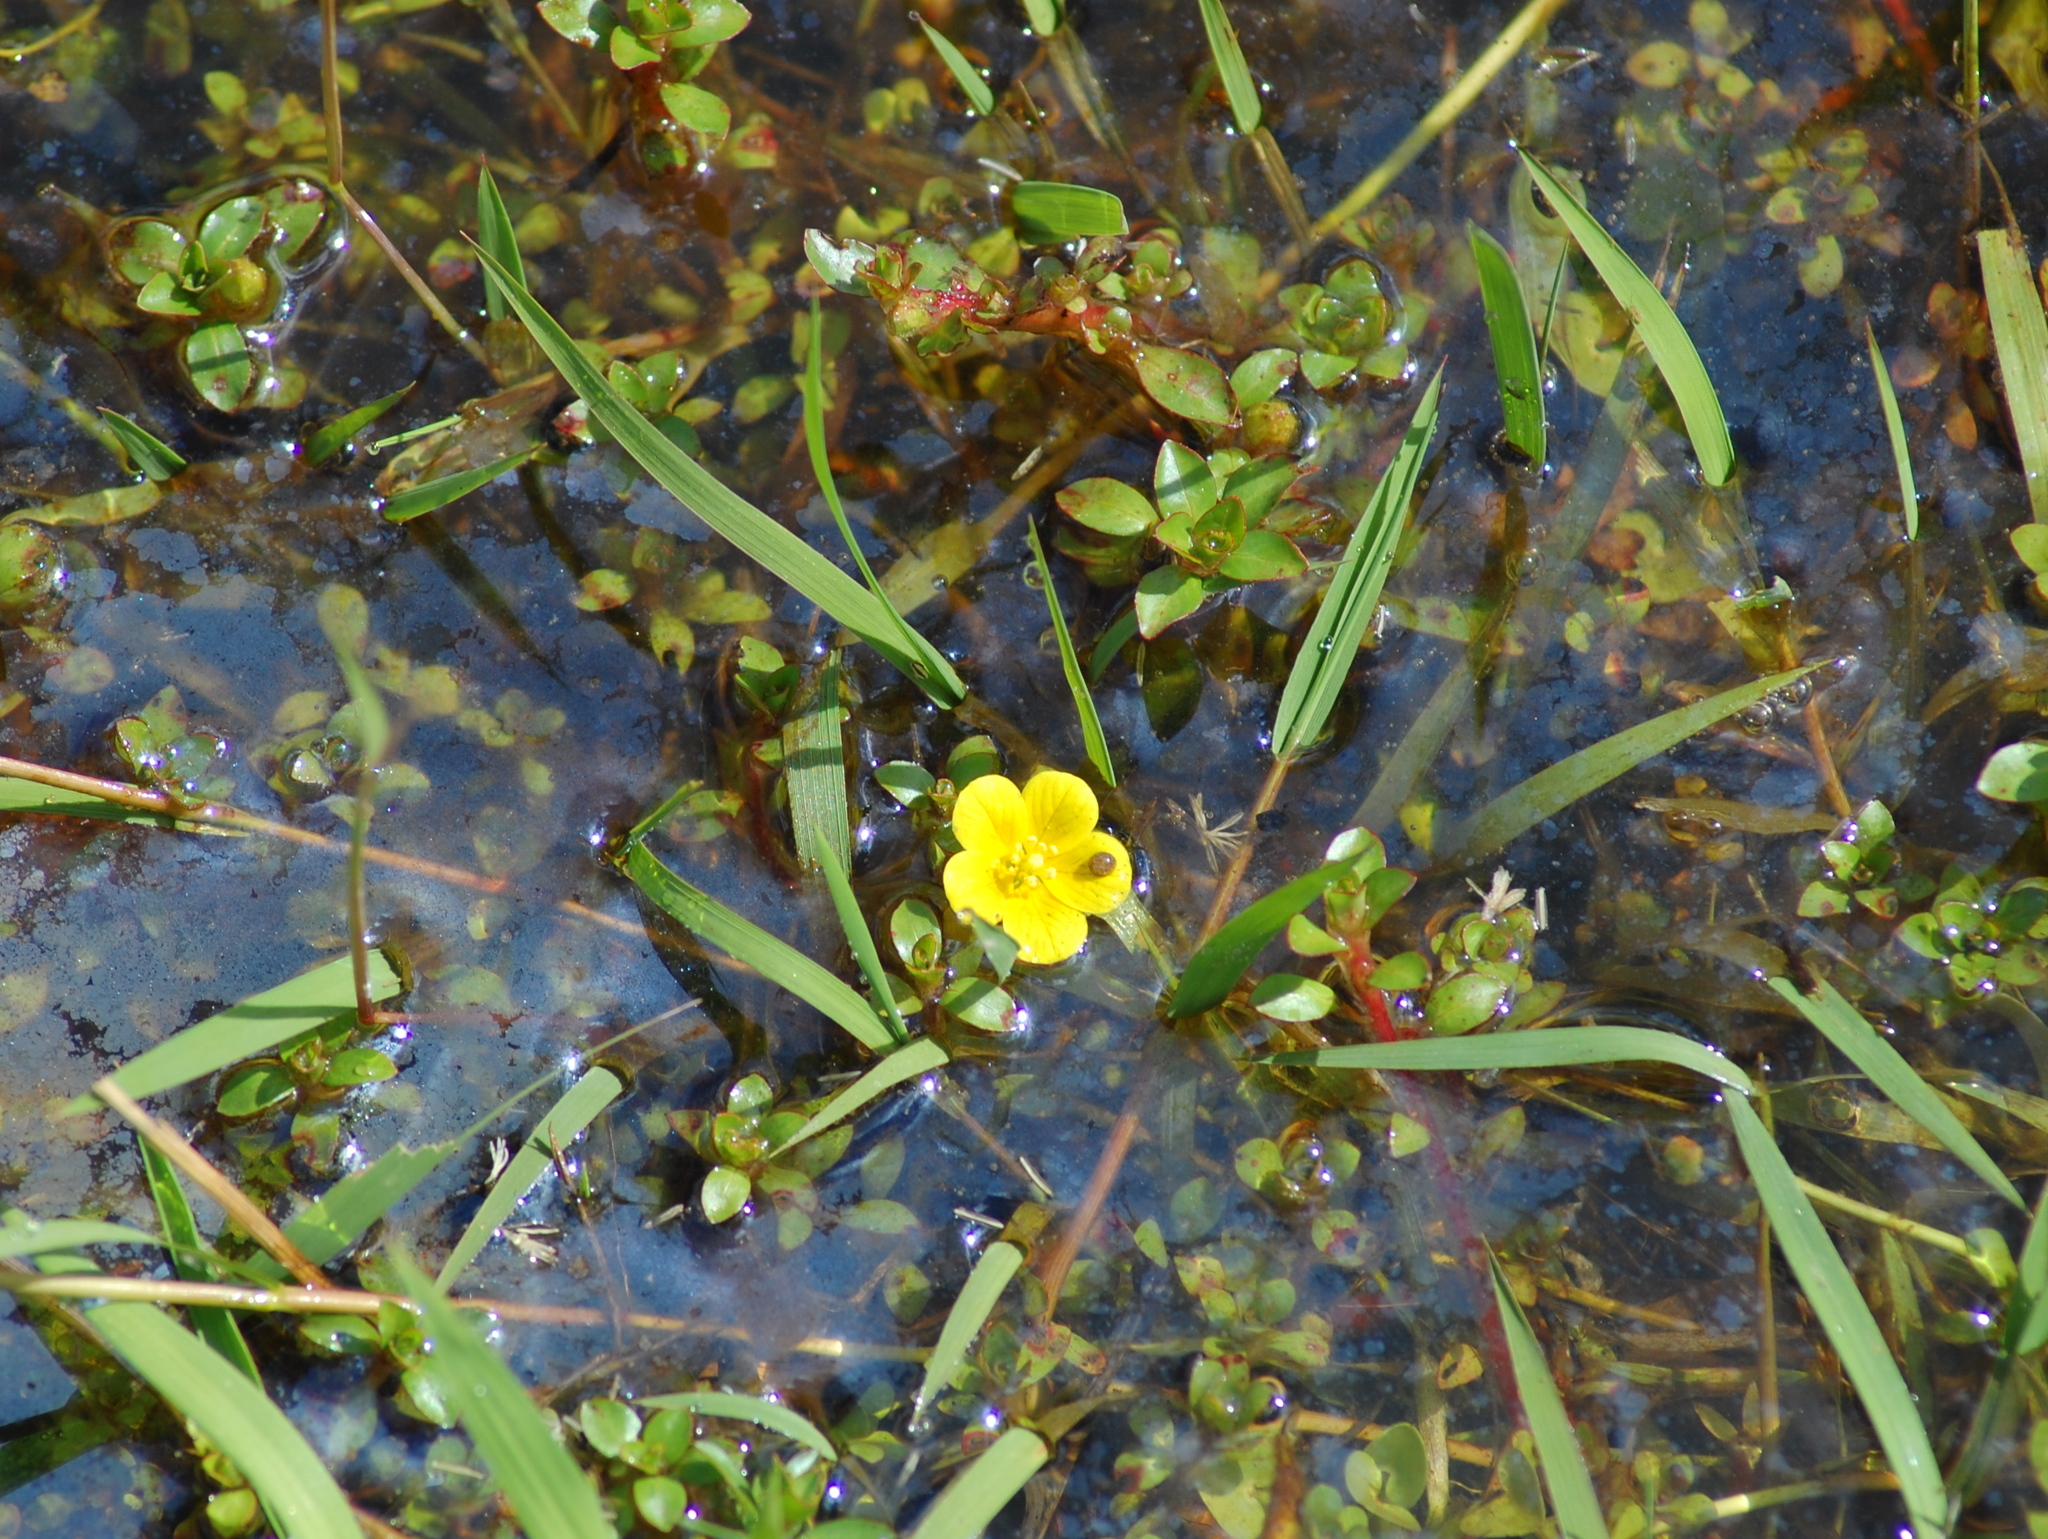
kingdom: Plantae
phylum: Tracheophyta
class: Magnoliopsida
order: Myrtales
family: Onagraceae
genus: Ludwigia
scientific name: Ludwigia hookeri
